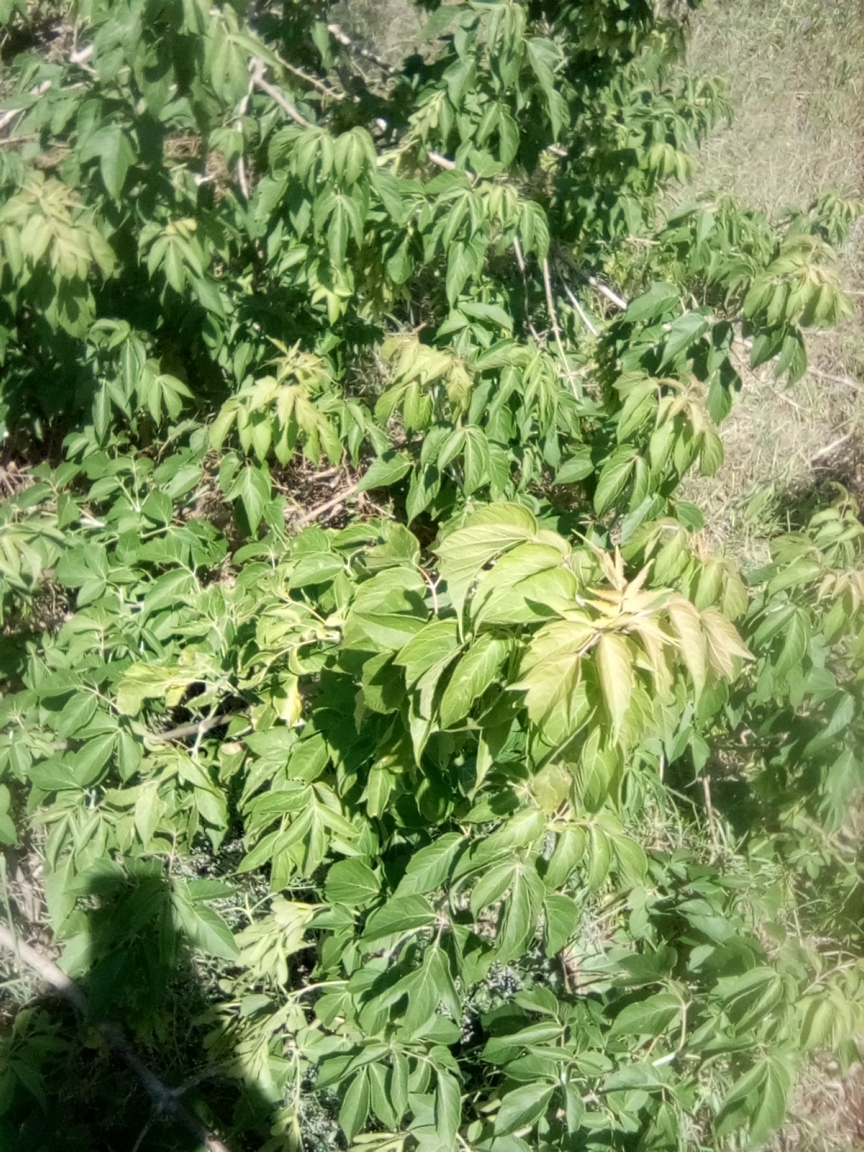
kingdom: Plantae
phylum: Tracheophyta
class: Magnoliopsida
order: Sapindales
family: Sapindaceae
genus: Acer
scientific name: Acer negundo
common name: Ashleaf maple
